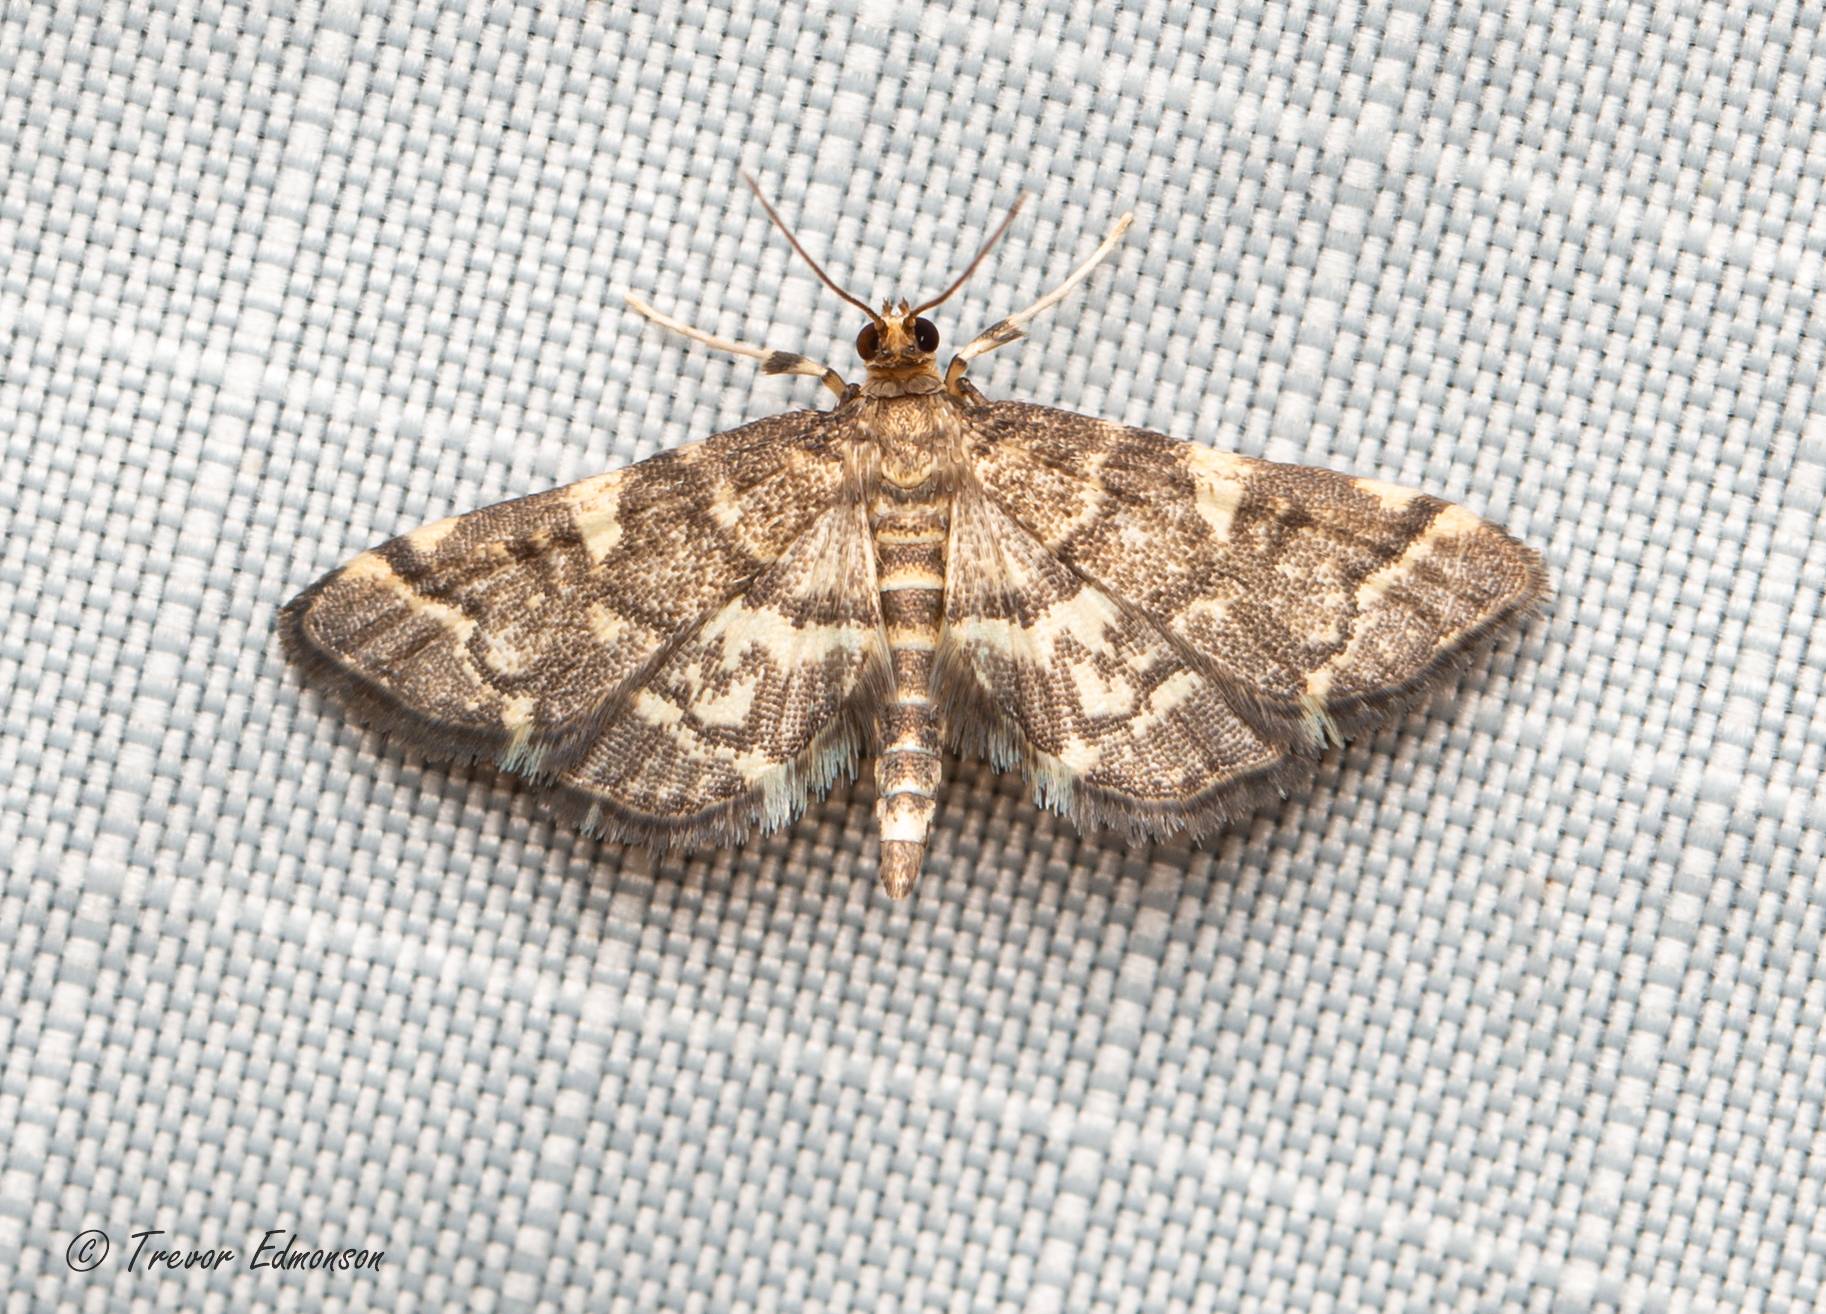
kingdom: Animalia
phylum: Arthropoda
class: Insecta
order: Lepidoptera
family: Crambidae
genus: Anageshna
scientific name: Anageshna primordialis
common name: Yellow-spotted webworm moth
